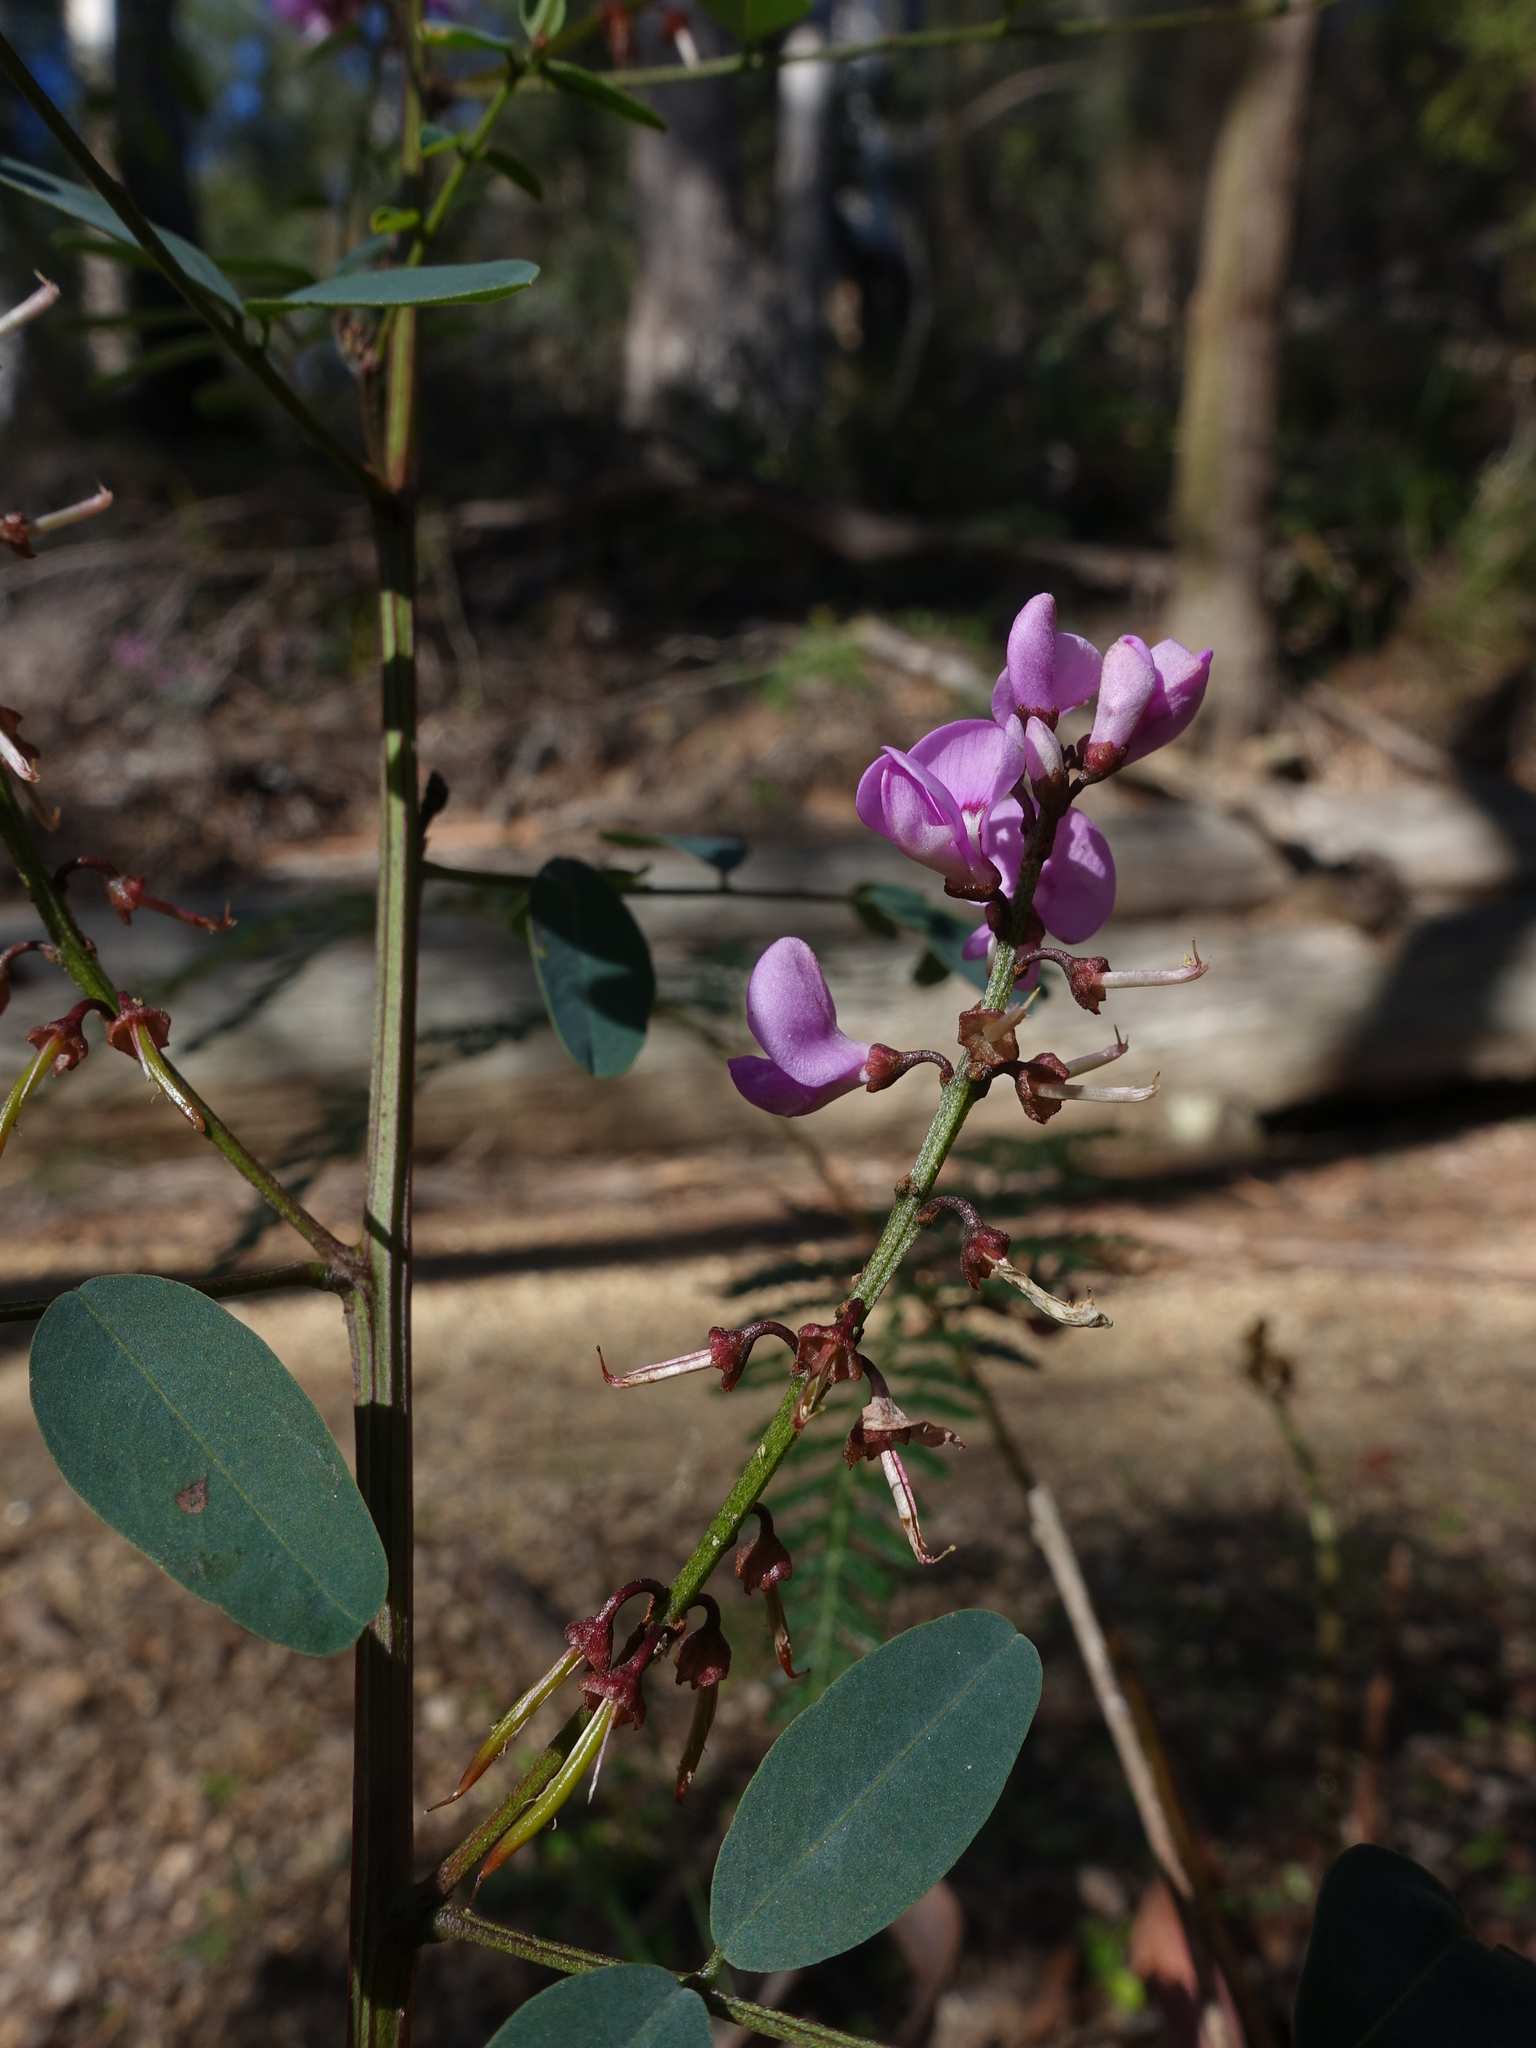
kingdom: Plantae
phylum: Tracheophyta
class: Magnoliopsida
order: Fabales
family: Fabaceae
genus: Indigofera
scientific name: Indigofera australis
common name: Australian indigo
